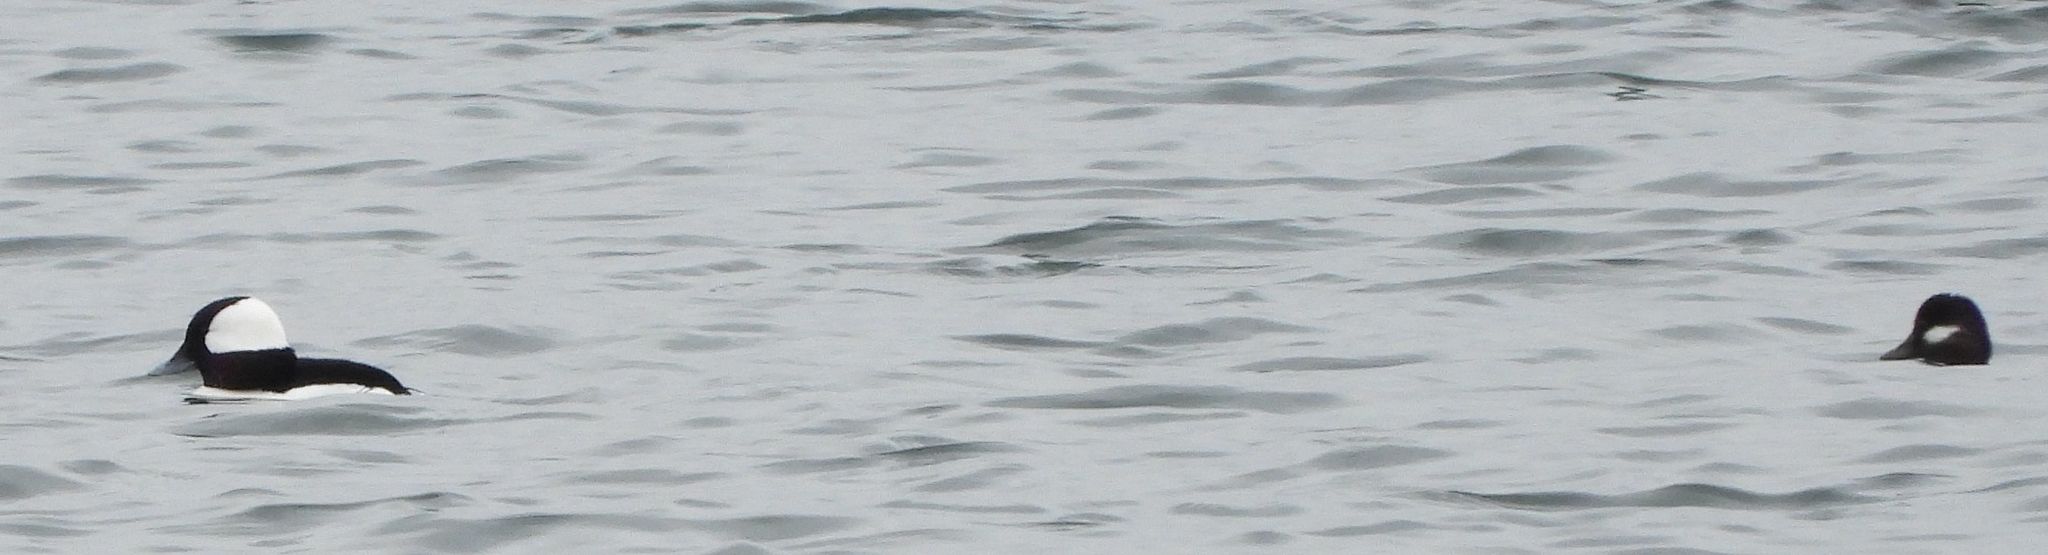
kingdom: Animalia
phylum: Chordata
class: Aves
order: Anseriformes
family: Anatidae
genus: Bucephala
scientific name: Bucephala albeola
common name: Bufflehead
